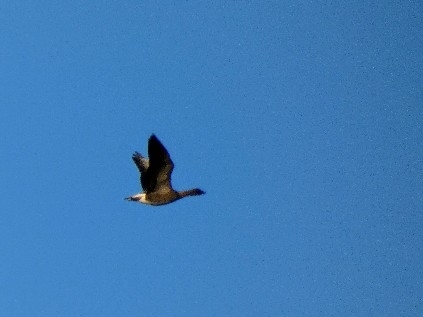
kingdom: Animalia
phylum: Chordata
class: Aves
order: Anseriformes
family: Anatidae
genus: Anser
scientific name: Anser brachyrhynchus
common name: Pink-footed goose
